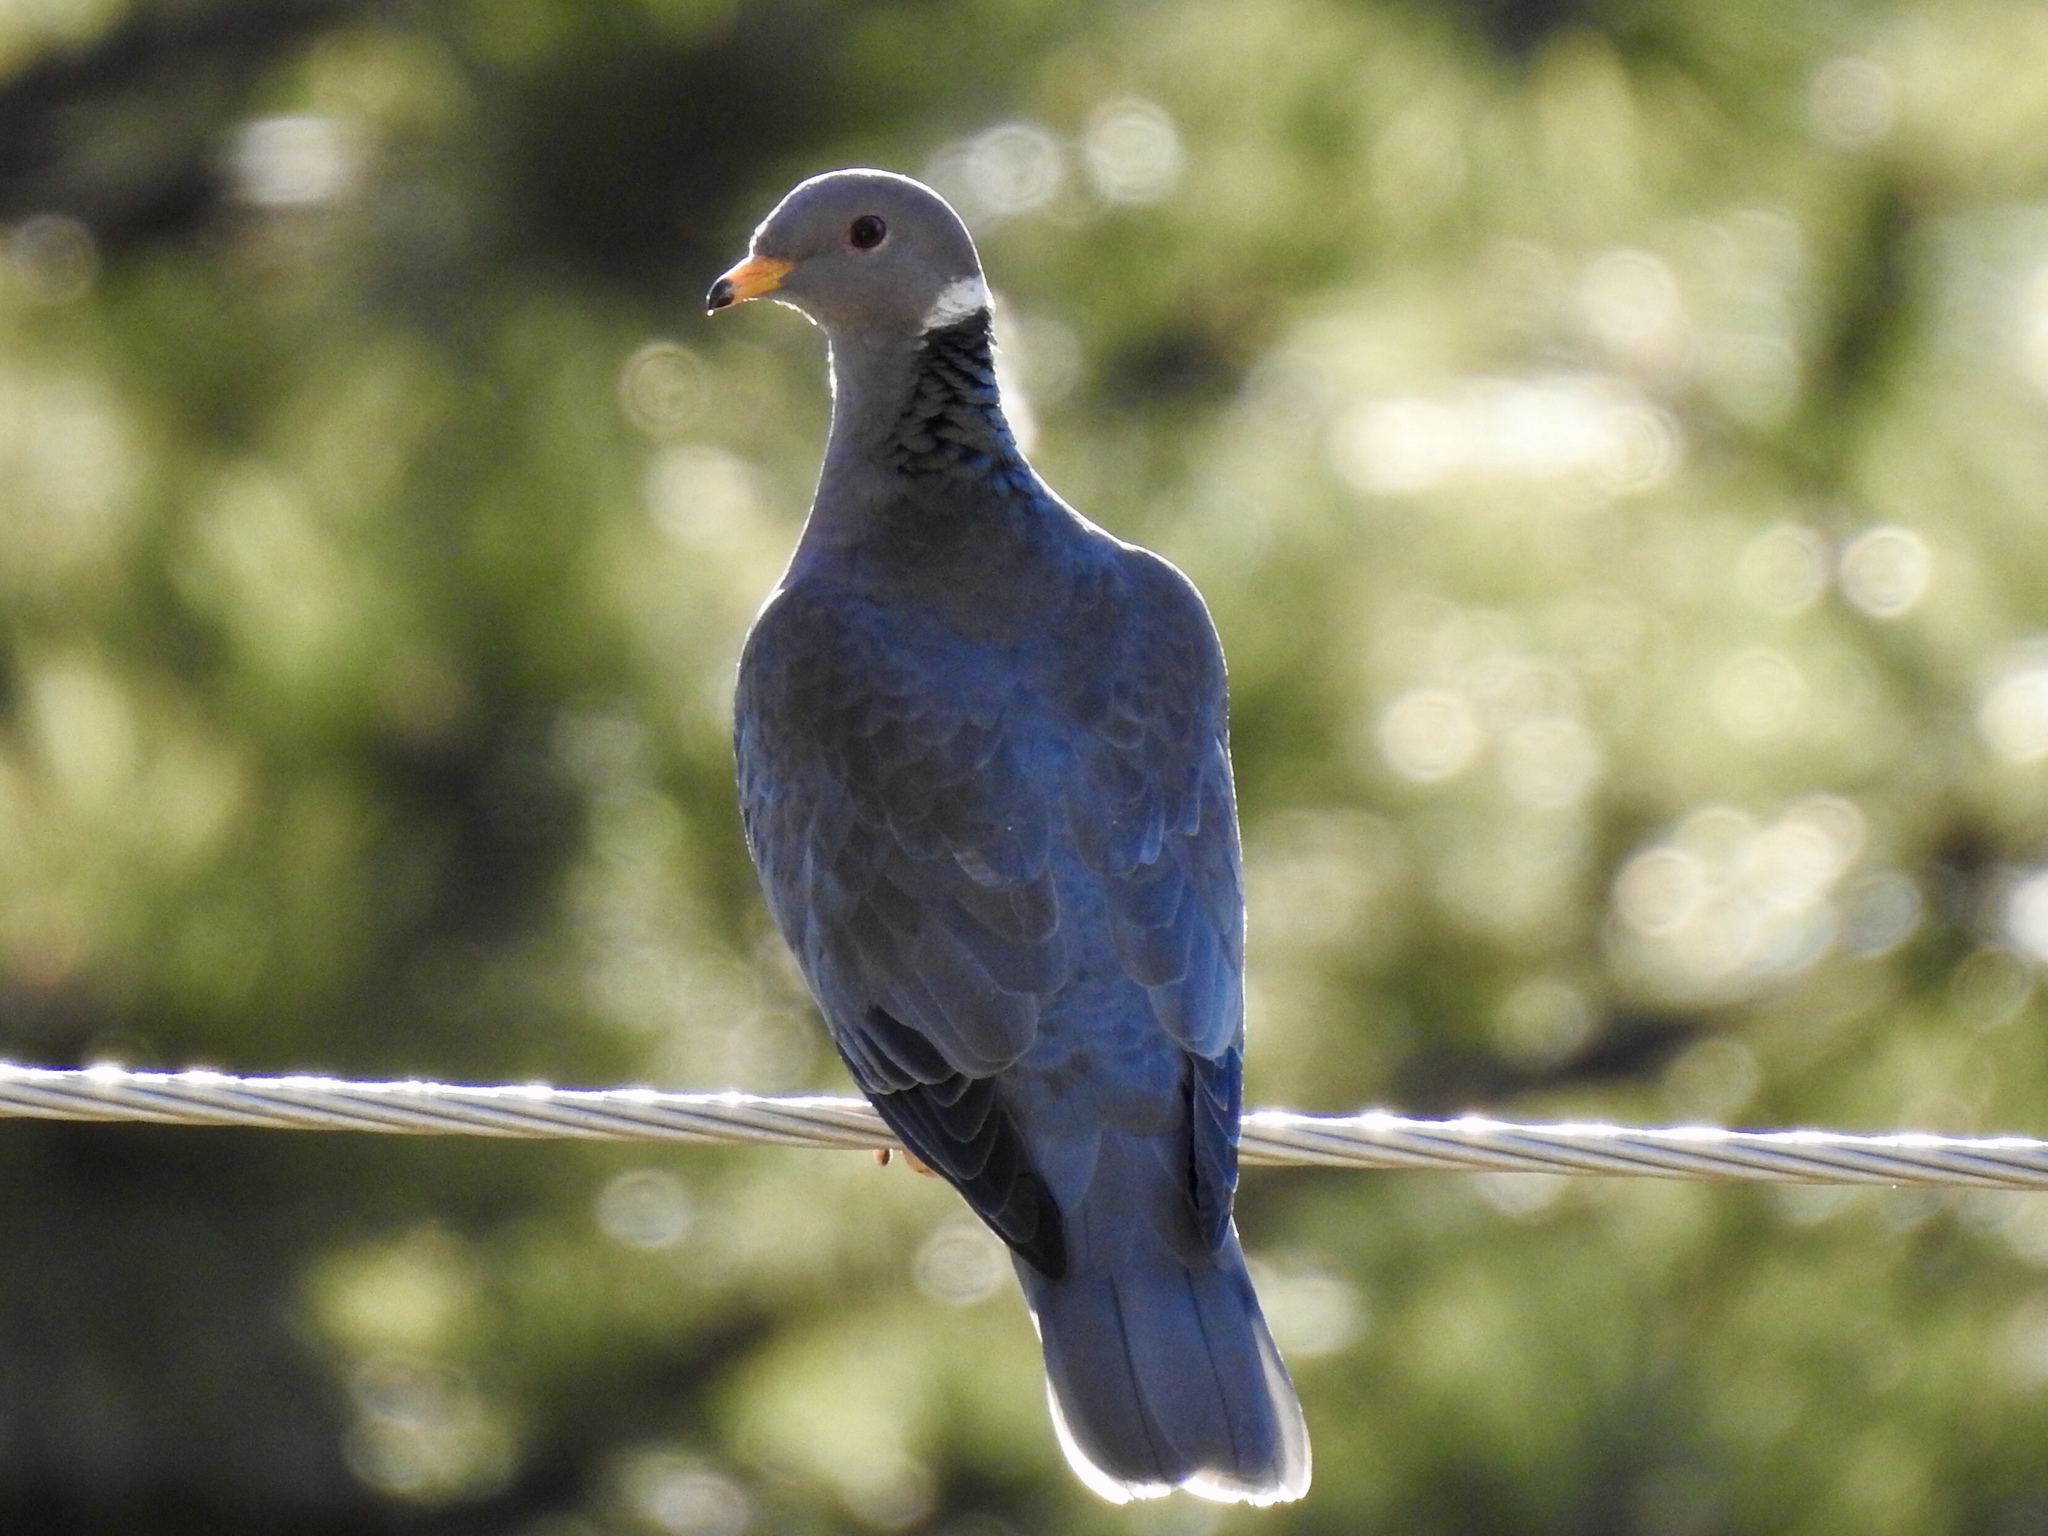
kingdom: Animalia
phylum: Chordata
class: Aves
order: Columbiformes
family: Columbidae
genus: Patagioenas
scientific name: Patagioenas fasciata
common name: Band-tailed pigeon
